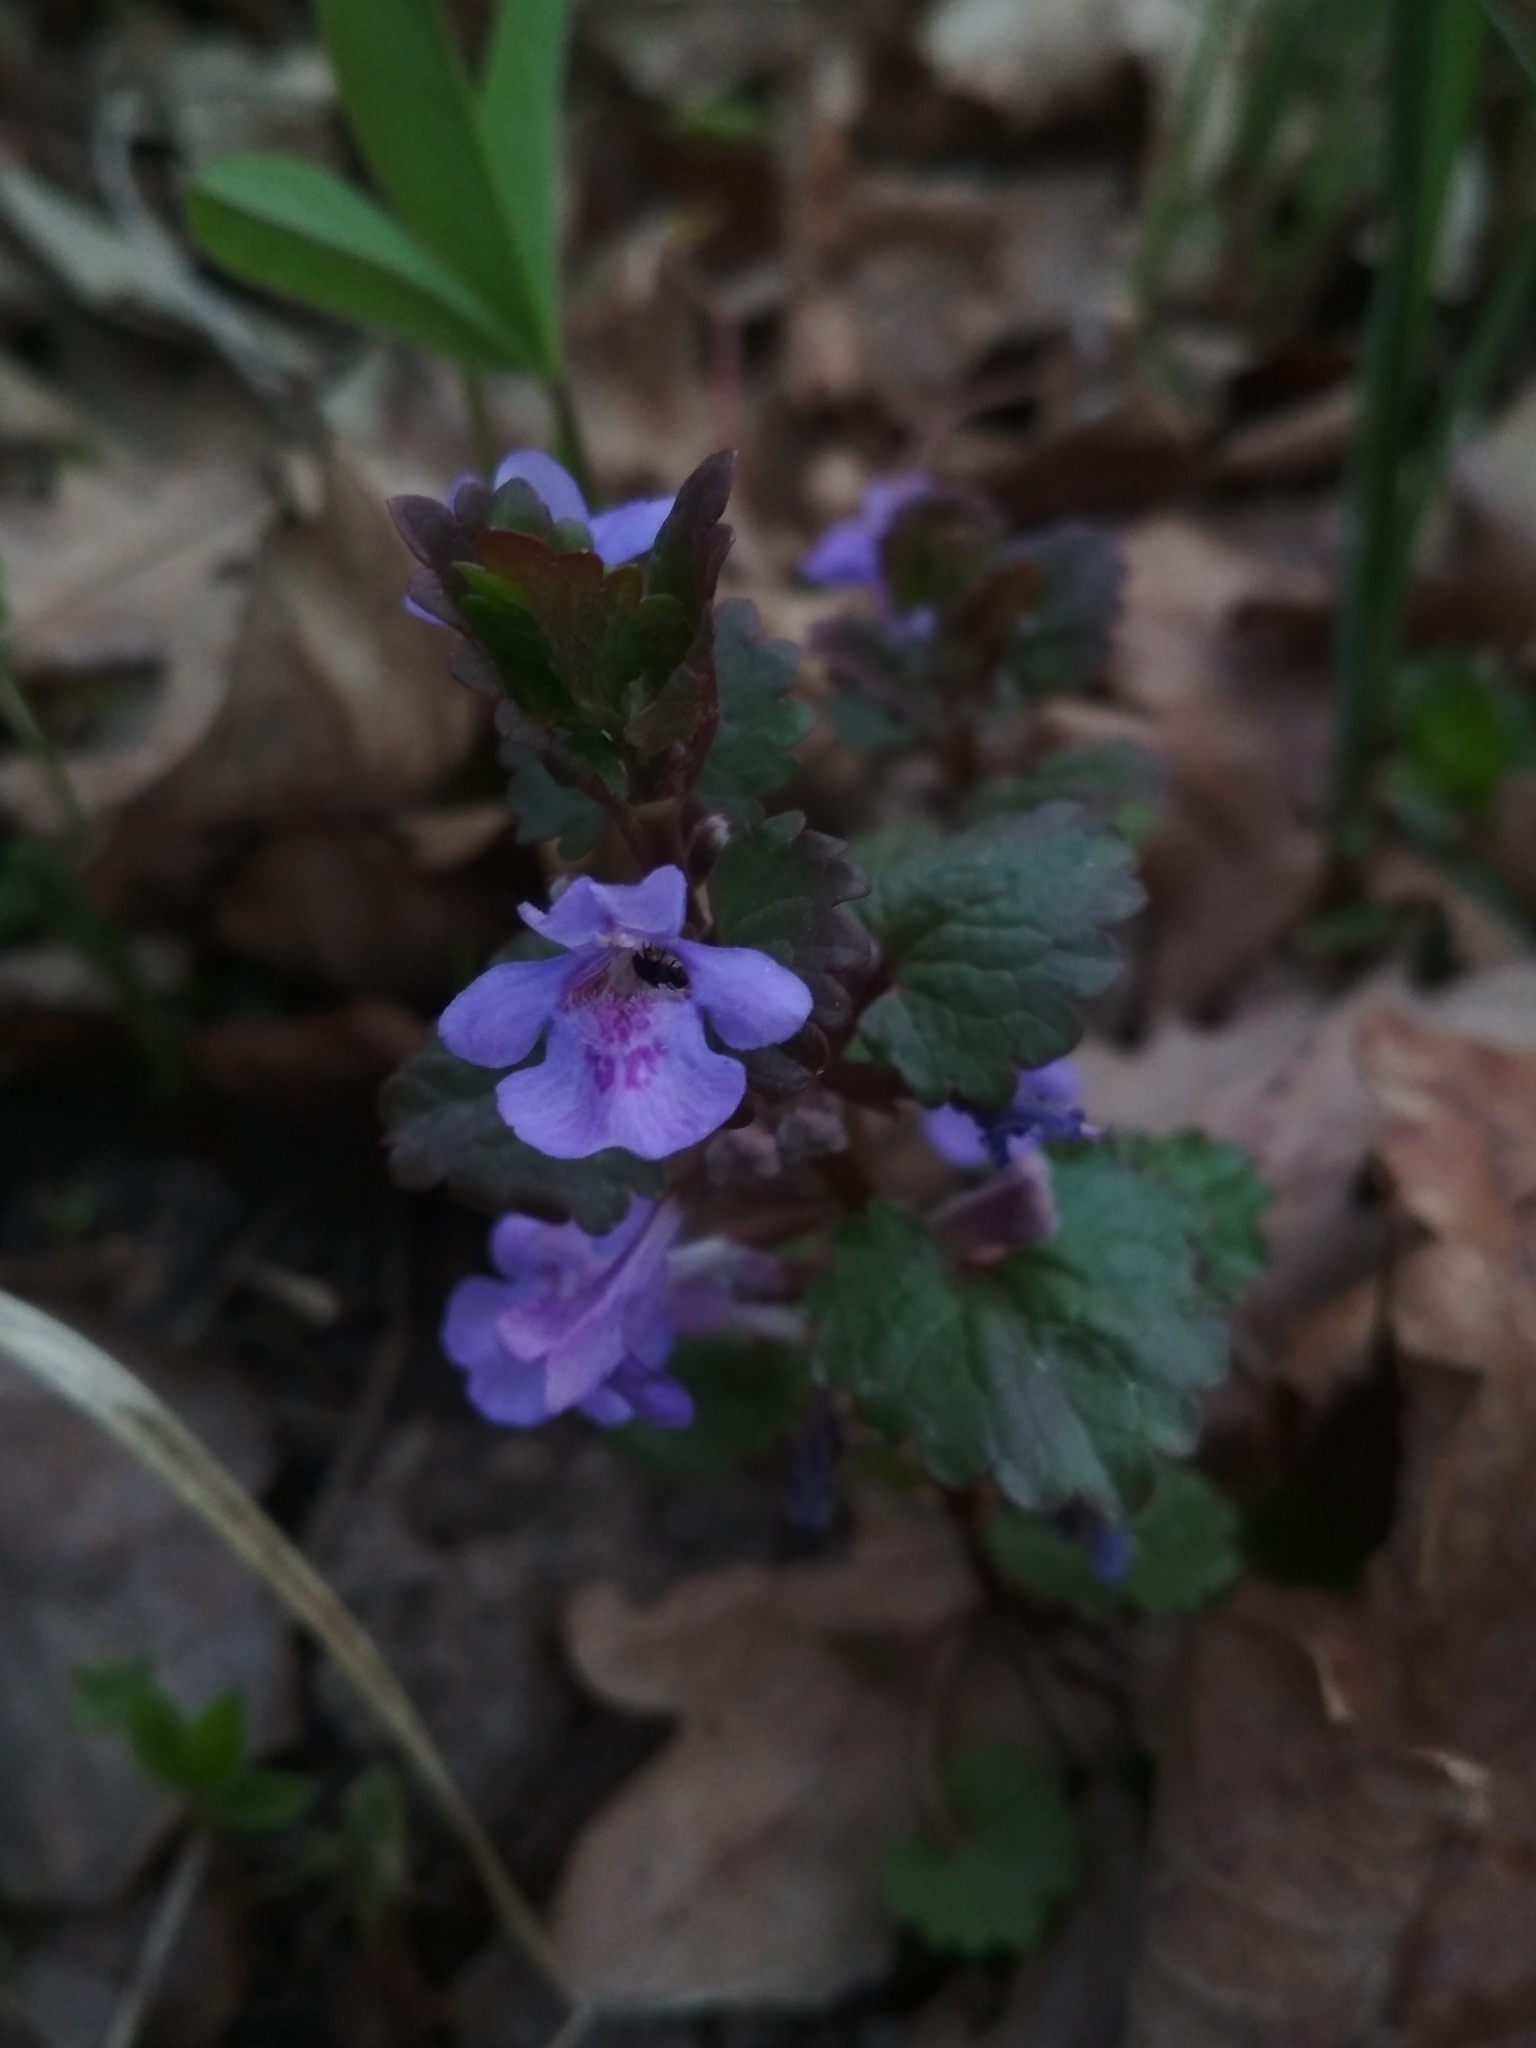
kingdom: Plantae
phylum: Tracheophyta
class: Magnoliopsida
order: Lamiales
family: Lamiaceae
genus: Glechoma
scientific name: Glechoma hederacea
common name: Ground ivy
